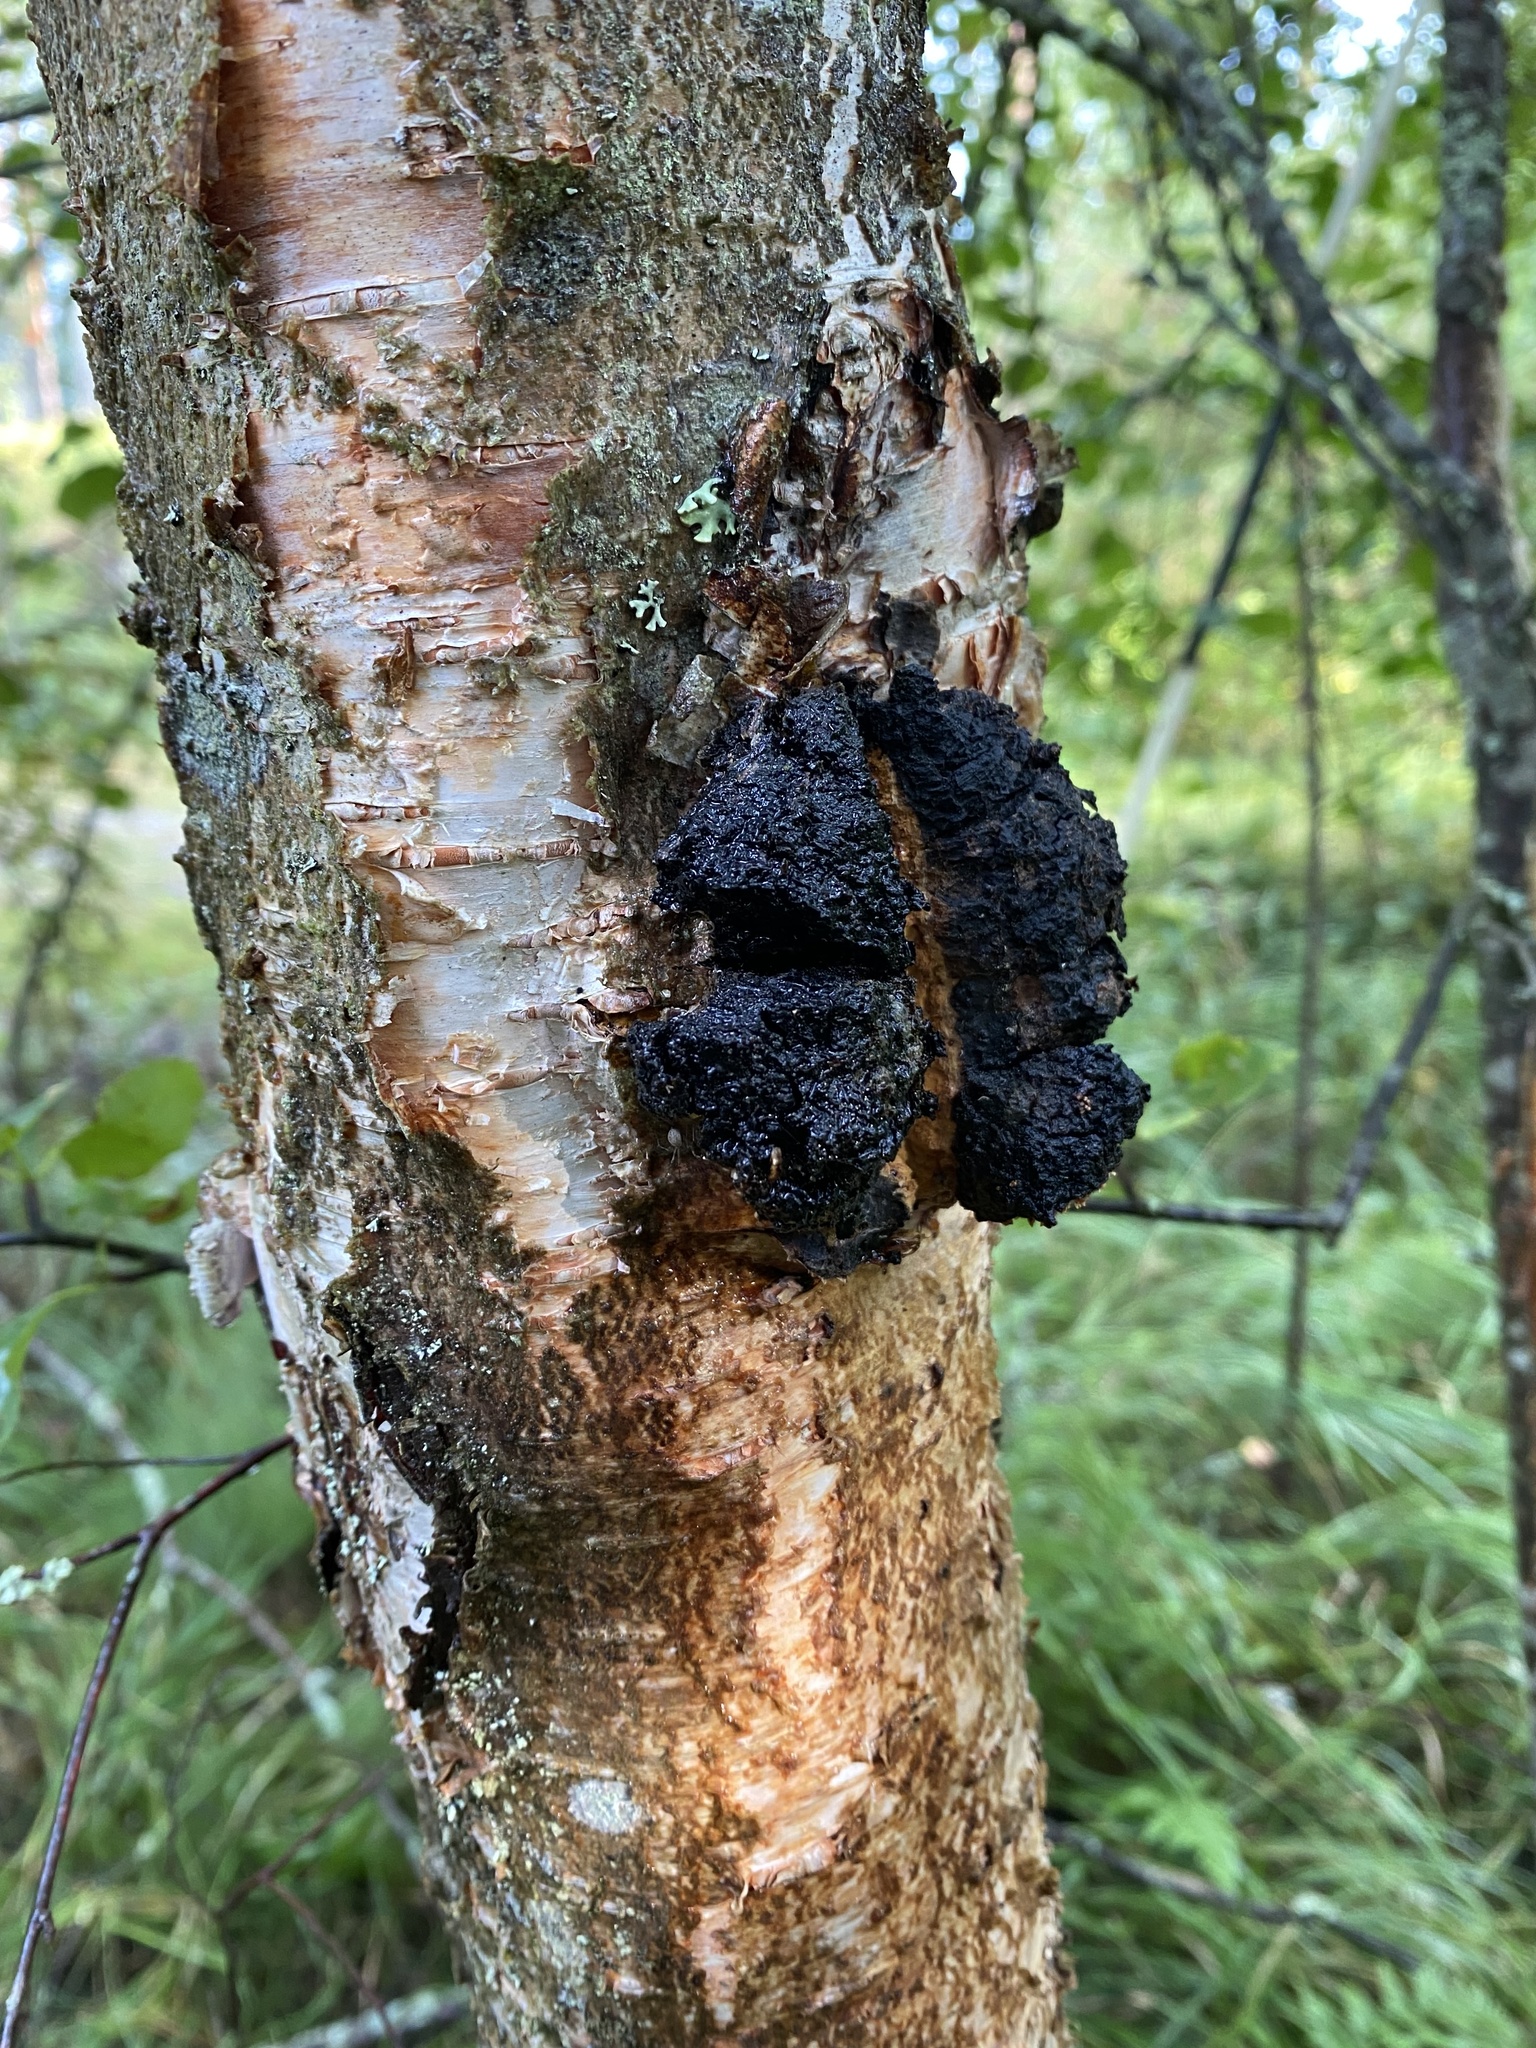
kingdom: Fungi
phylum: Basidiomycota
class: Agaricomycetes
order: Hymenochaetales
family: Hymenochaetaceae
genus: Inonotus
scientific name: Inonotus obliquus
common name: Chaga
